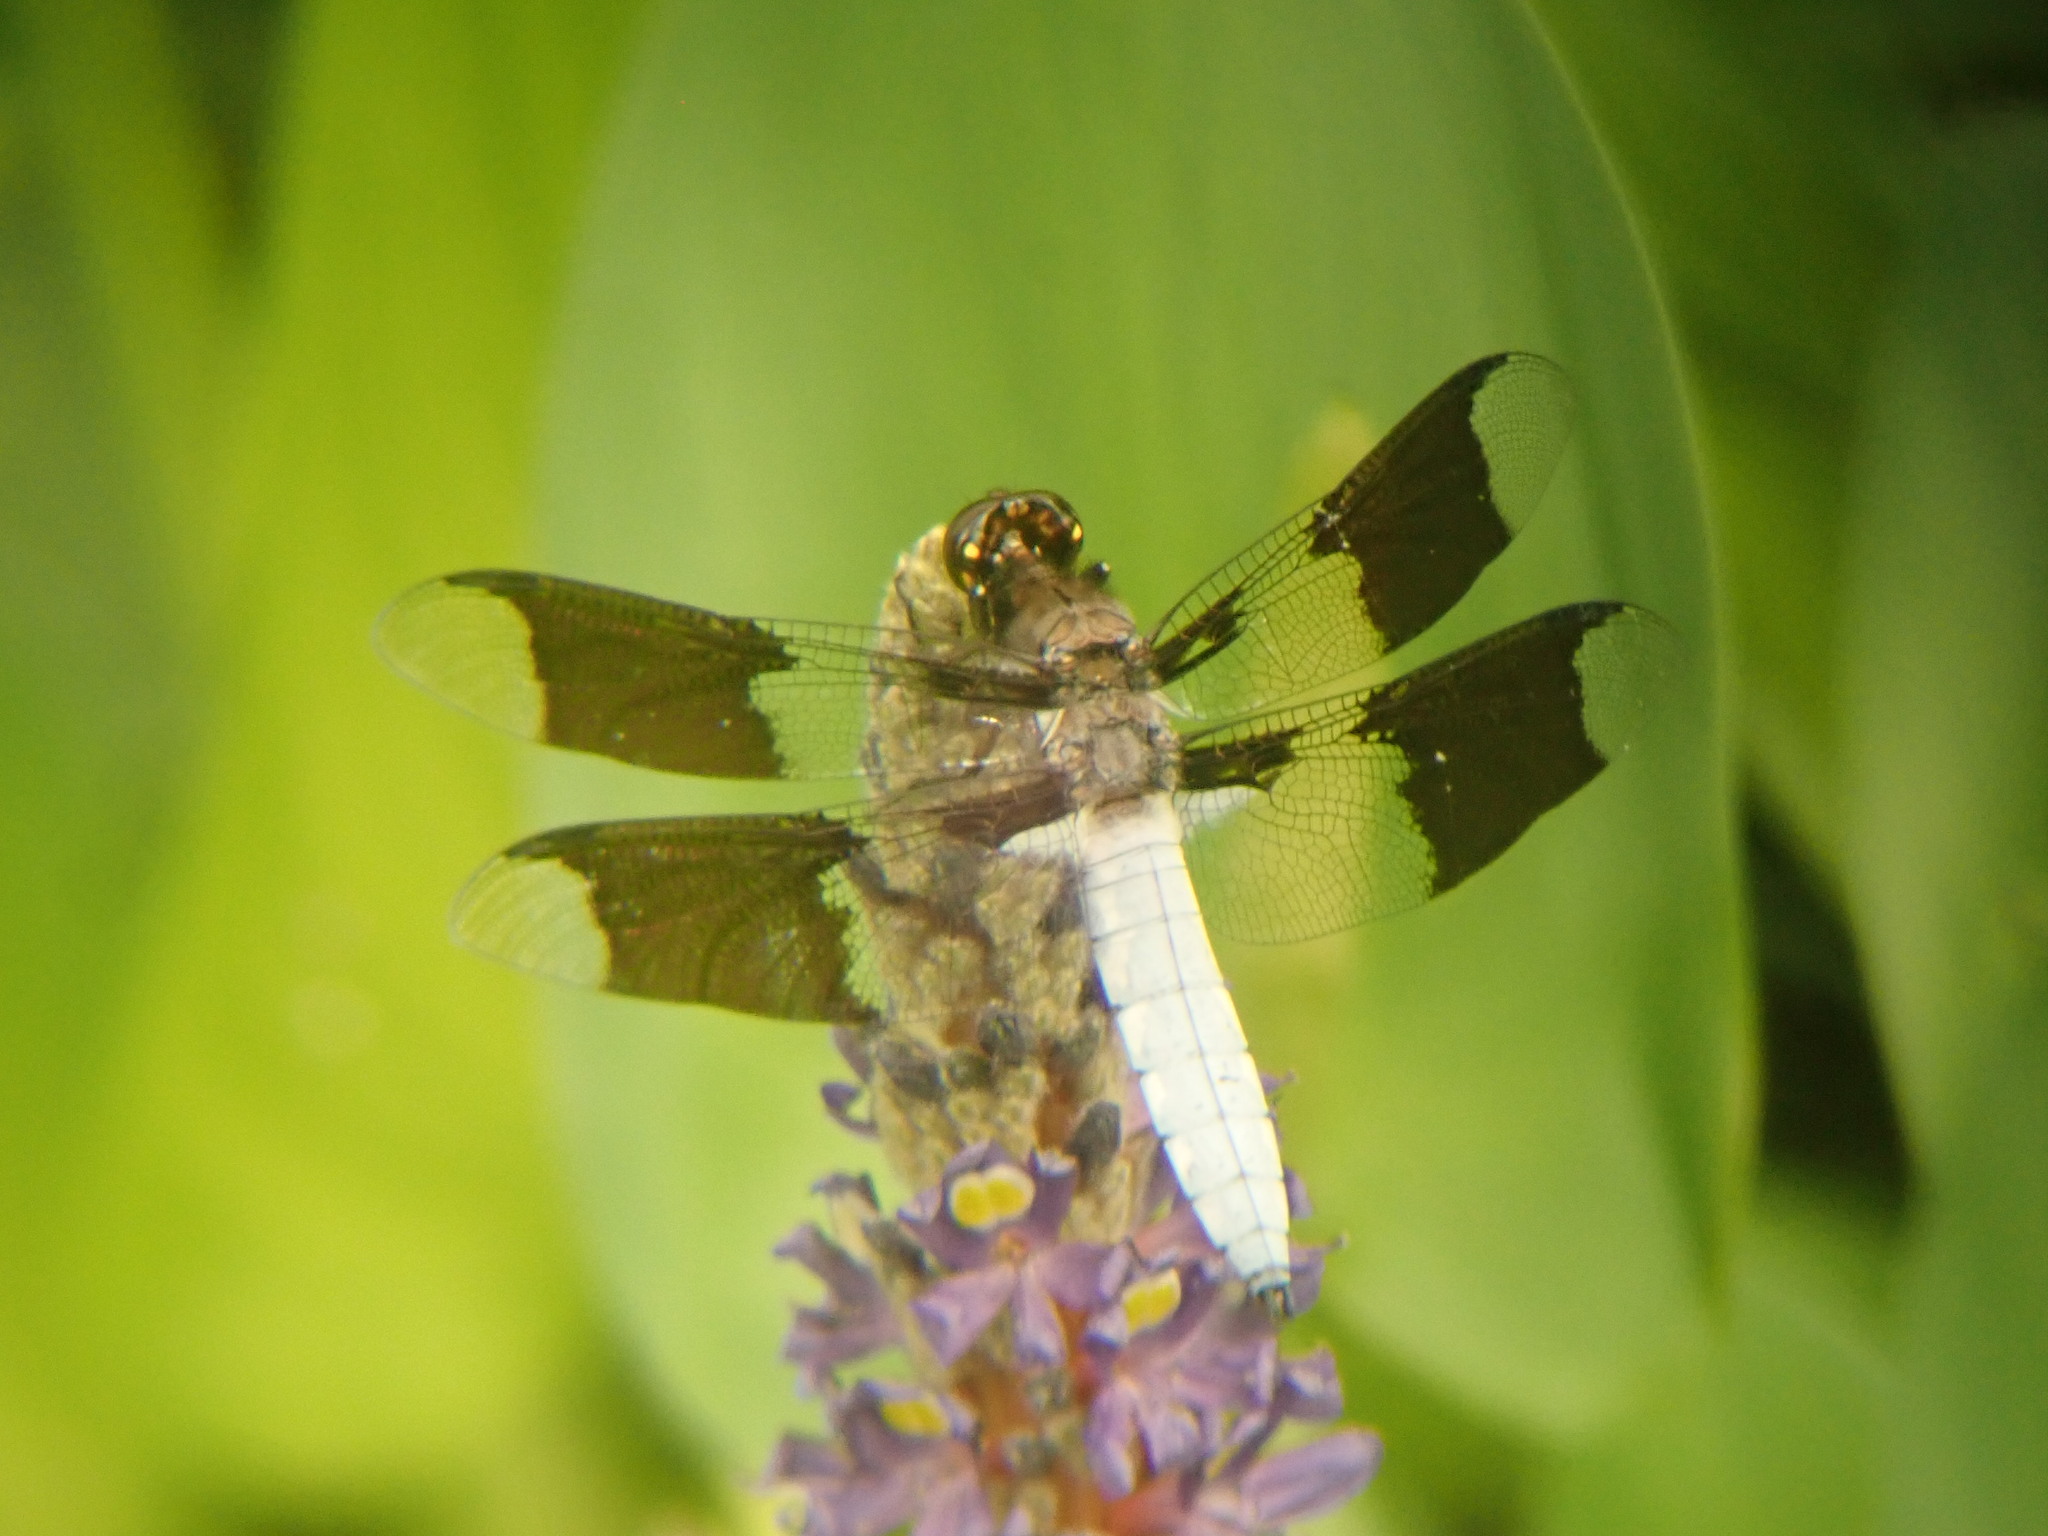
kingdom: Animalia
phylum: Arthropoda
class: Insecta
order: Odonata
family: Libellulidae
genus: Plathemis
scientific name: Plathemis lydia
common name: Common whitetail
